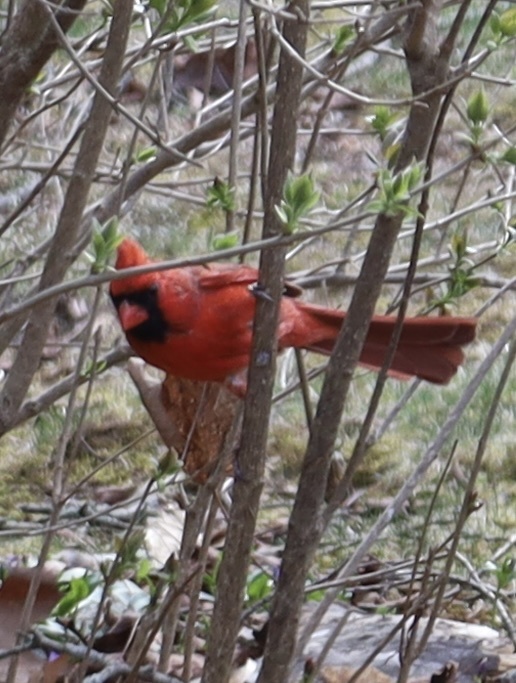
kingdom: Animalia
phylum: Chordata
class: Aves
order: Passeriformes
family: Cardinalidae
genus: Cardinalis
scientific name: Cardinalis cardinalis
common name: Northern cardinal
